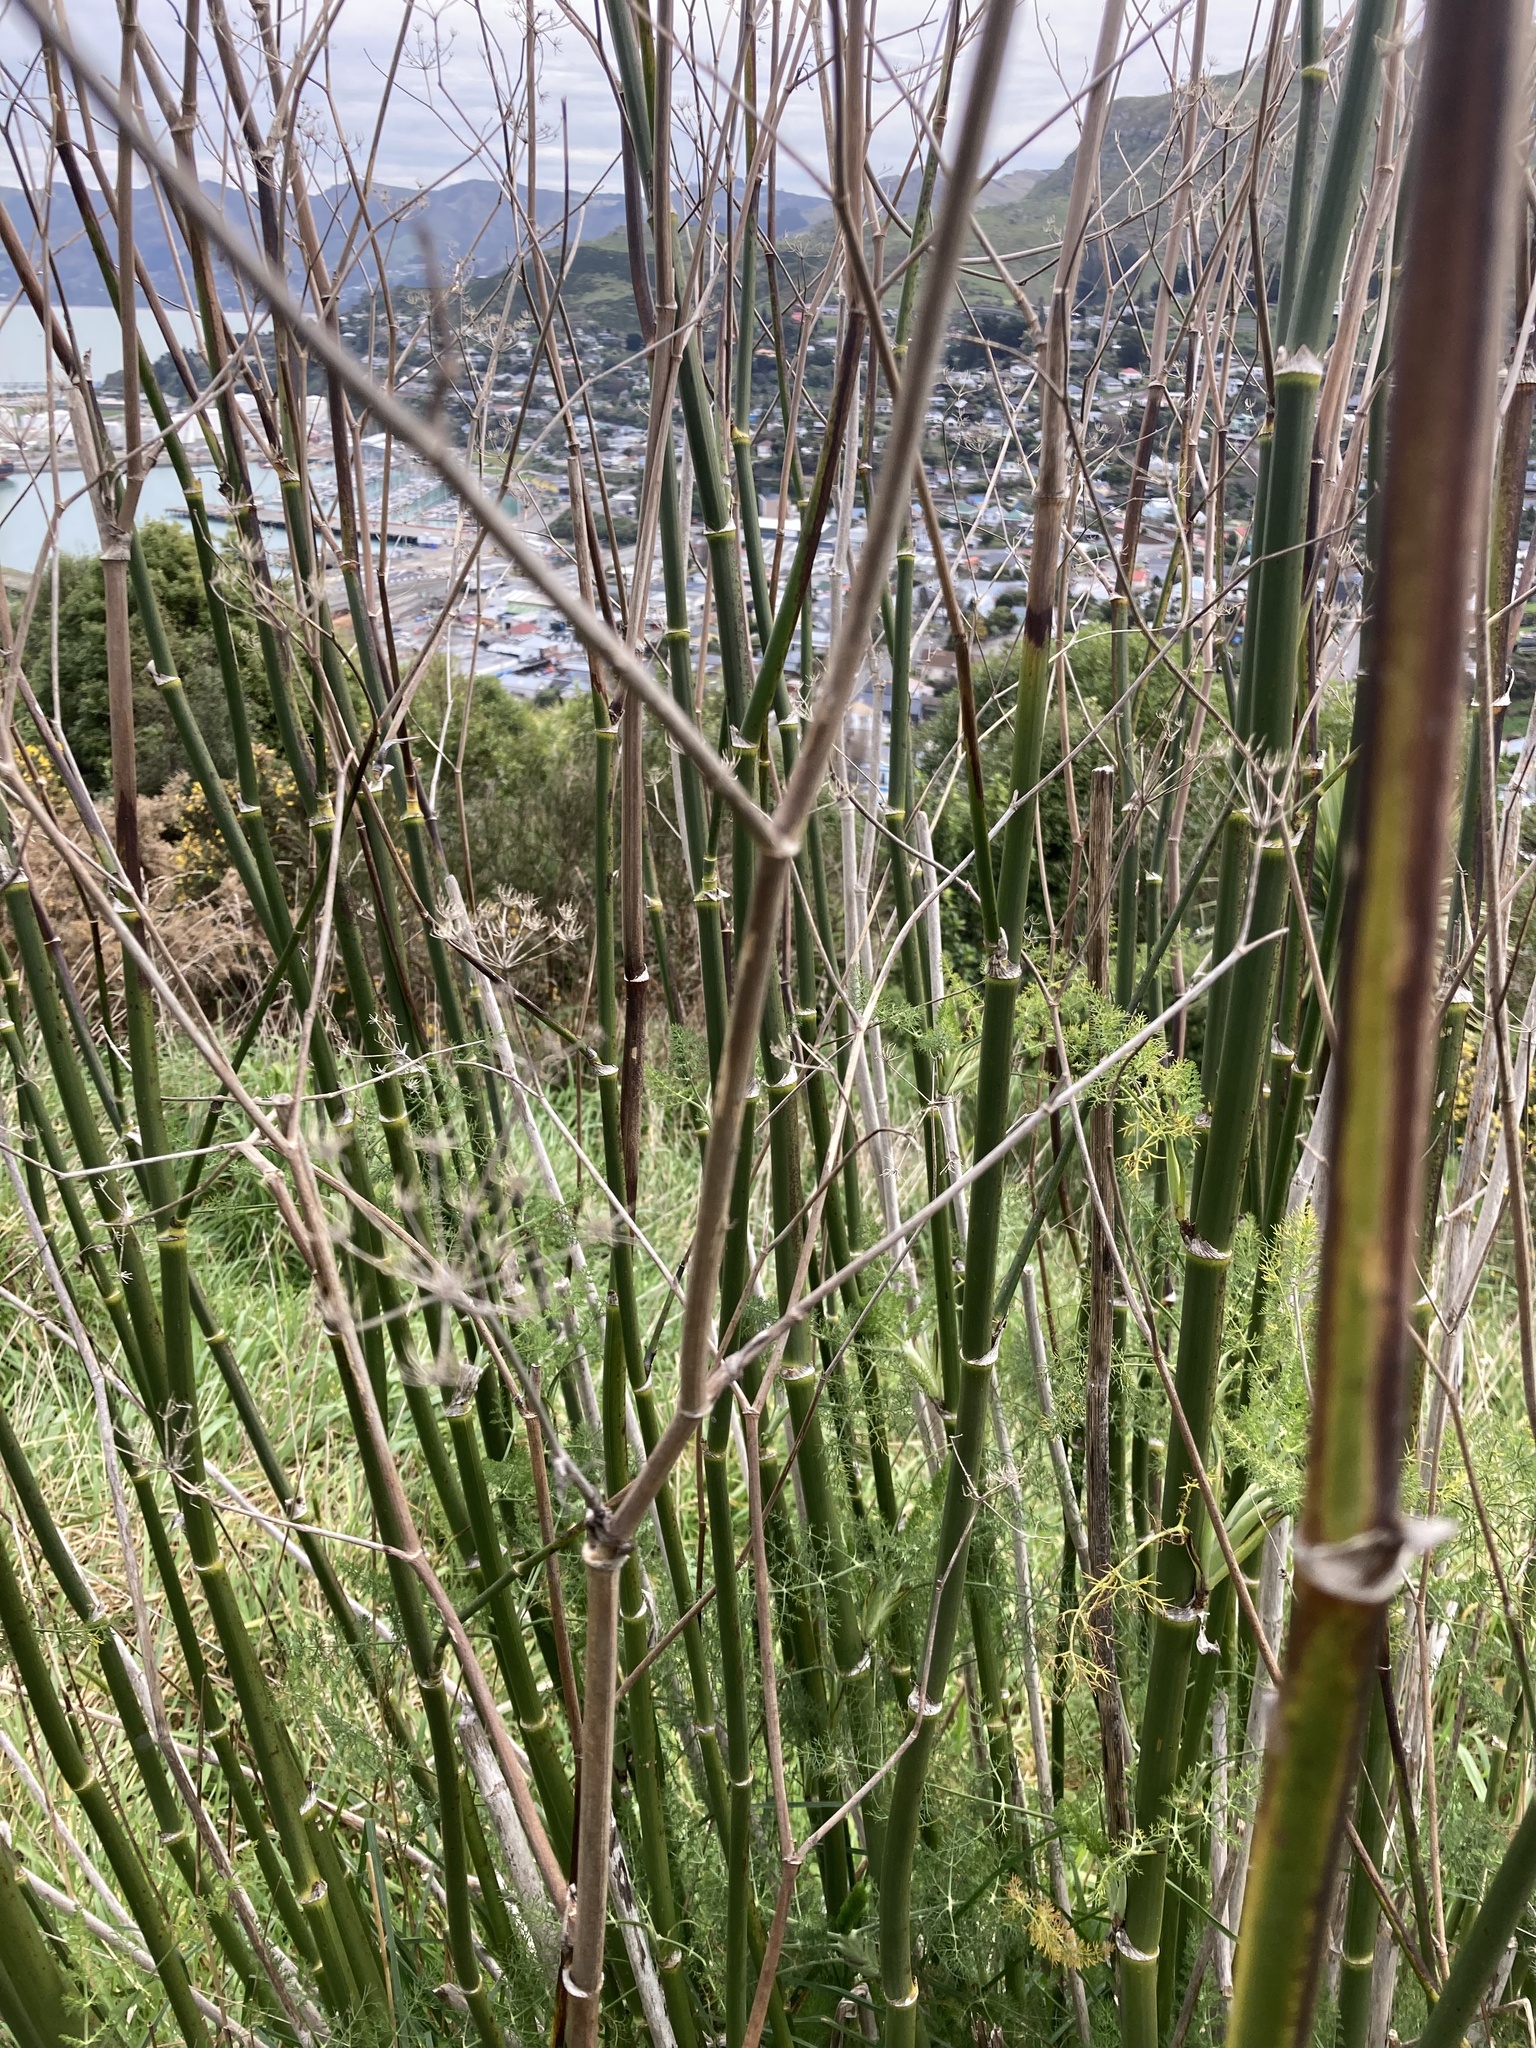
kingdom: Plantae
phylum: Tracheophyta
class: Magnoliopsida
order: Apiales
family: Apiaceae
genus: Foeniculum
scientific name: Foeniculum vulgare
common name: Fennel
